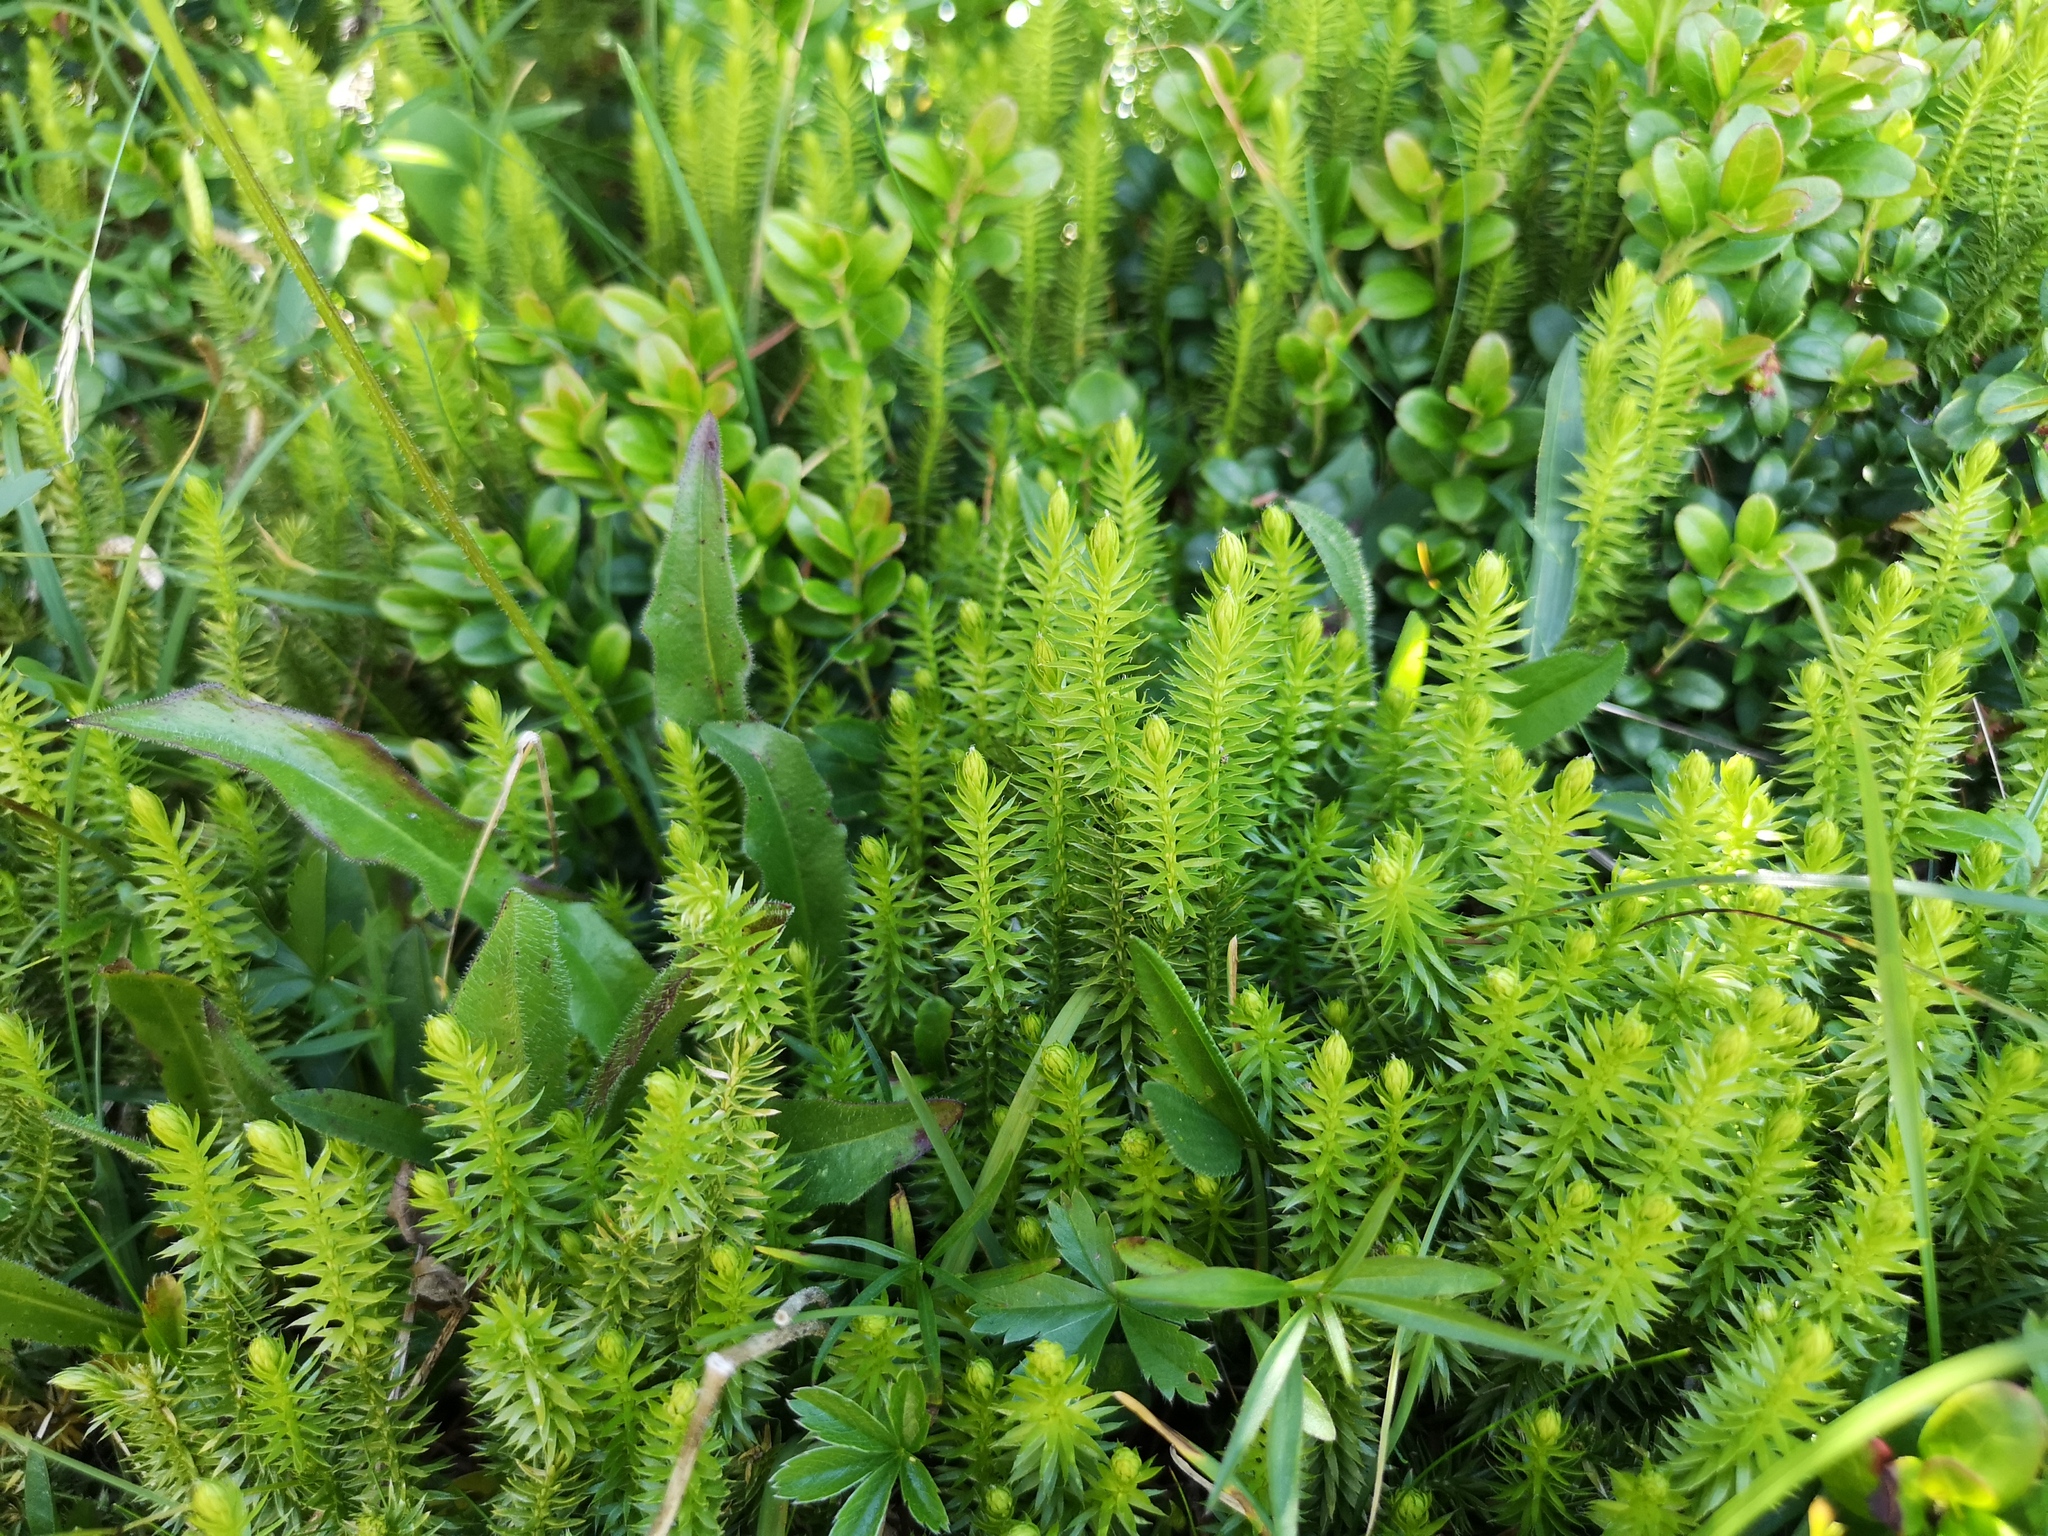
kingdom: Plantae
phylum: Tracheophyta
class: Lycopodiopsida
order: Lycopodiales
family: Lycopodiaceae
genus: Spinulum
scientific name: Spinulum annotinum
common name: Interrupted club-moss
